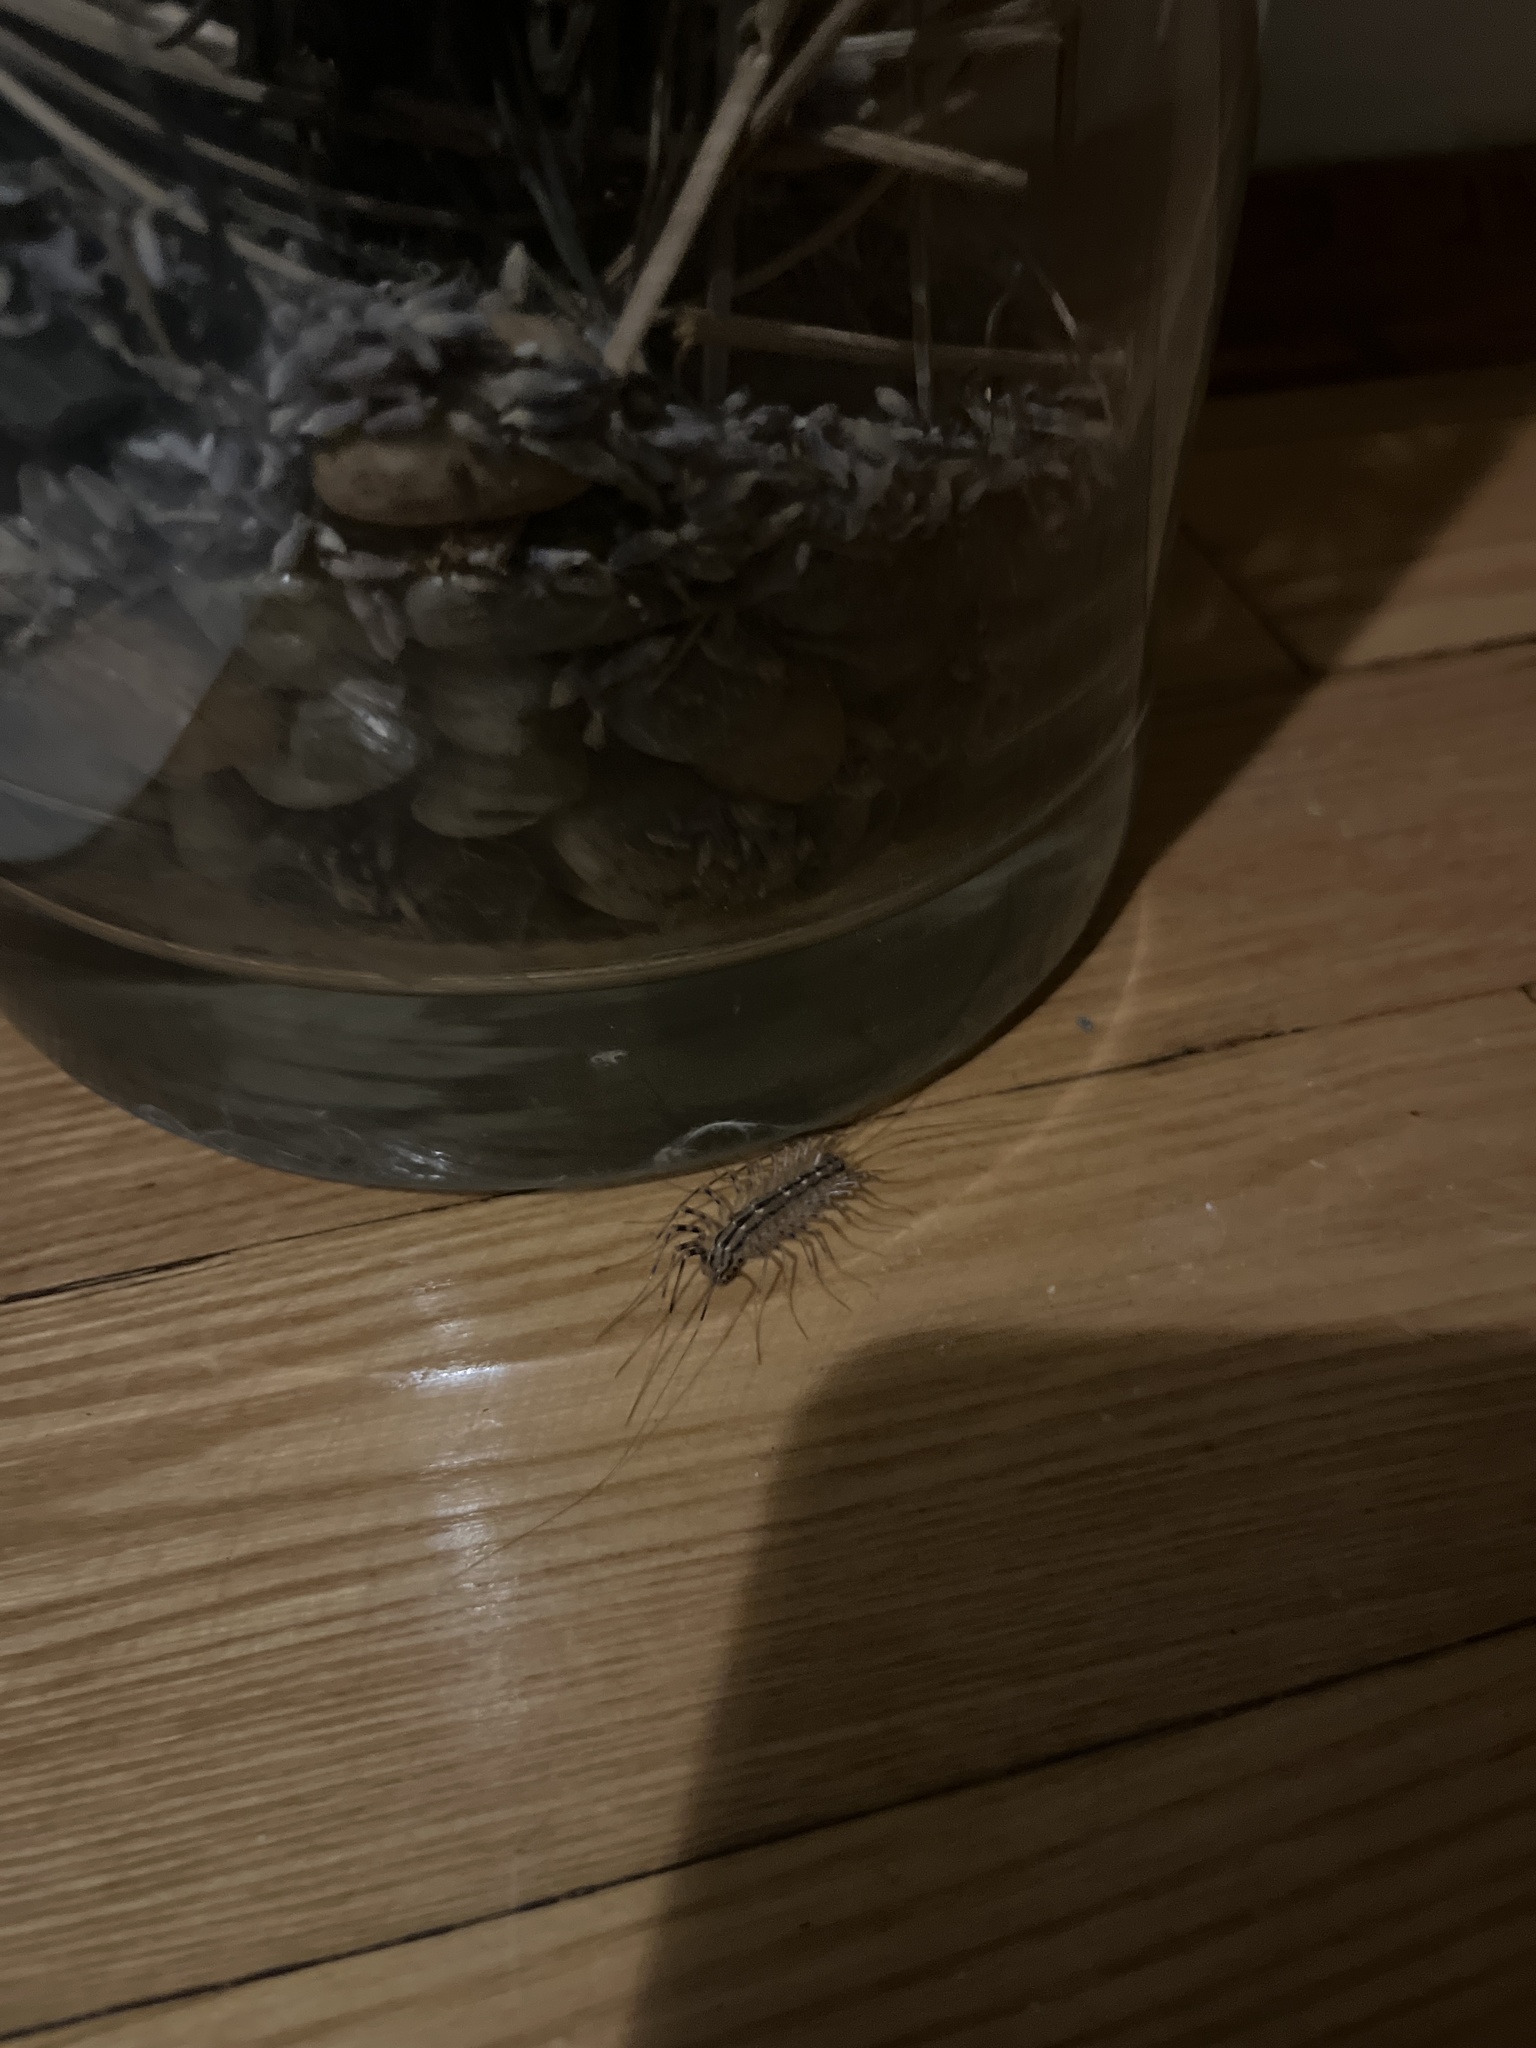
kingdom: Animalia
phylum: Arthropoda
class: Chilopoda
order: Scutigeromorpha
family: Scutigeridae
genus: Scutigera
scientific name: Scutigera coleoptrata
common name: House centipede
